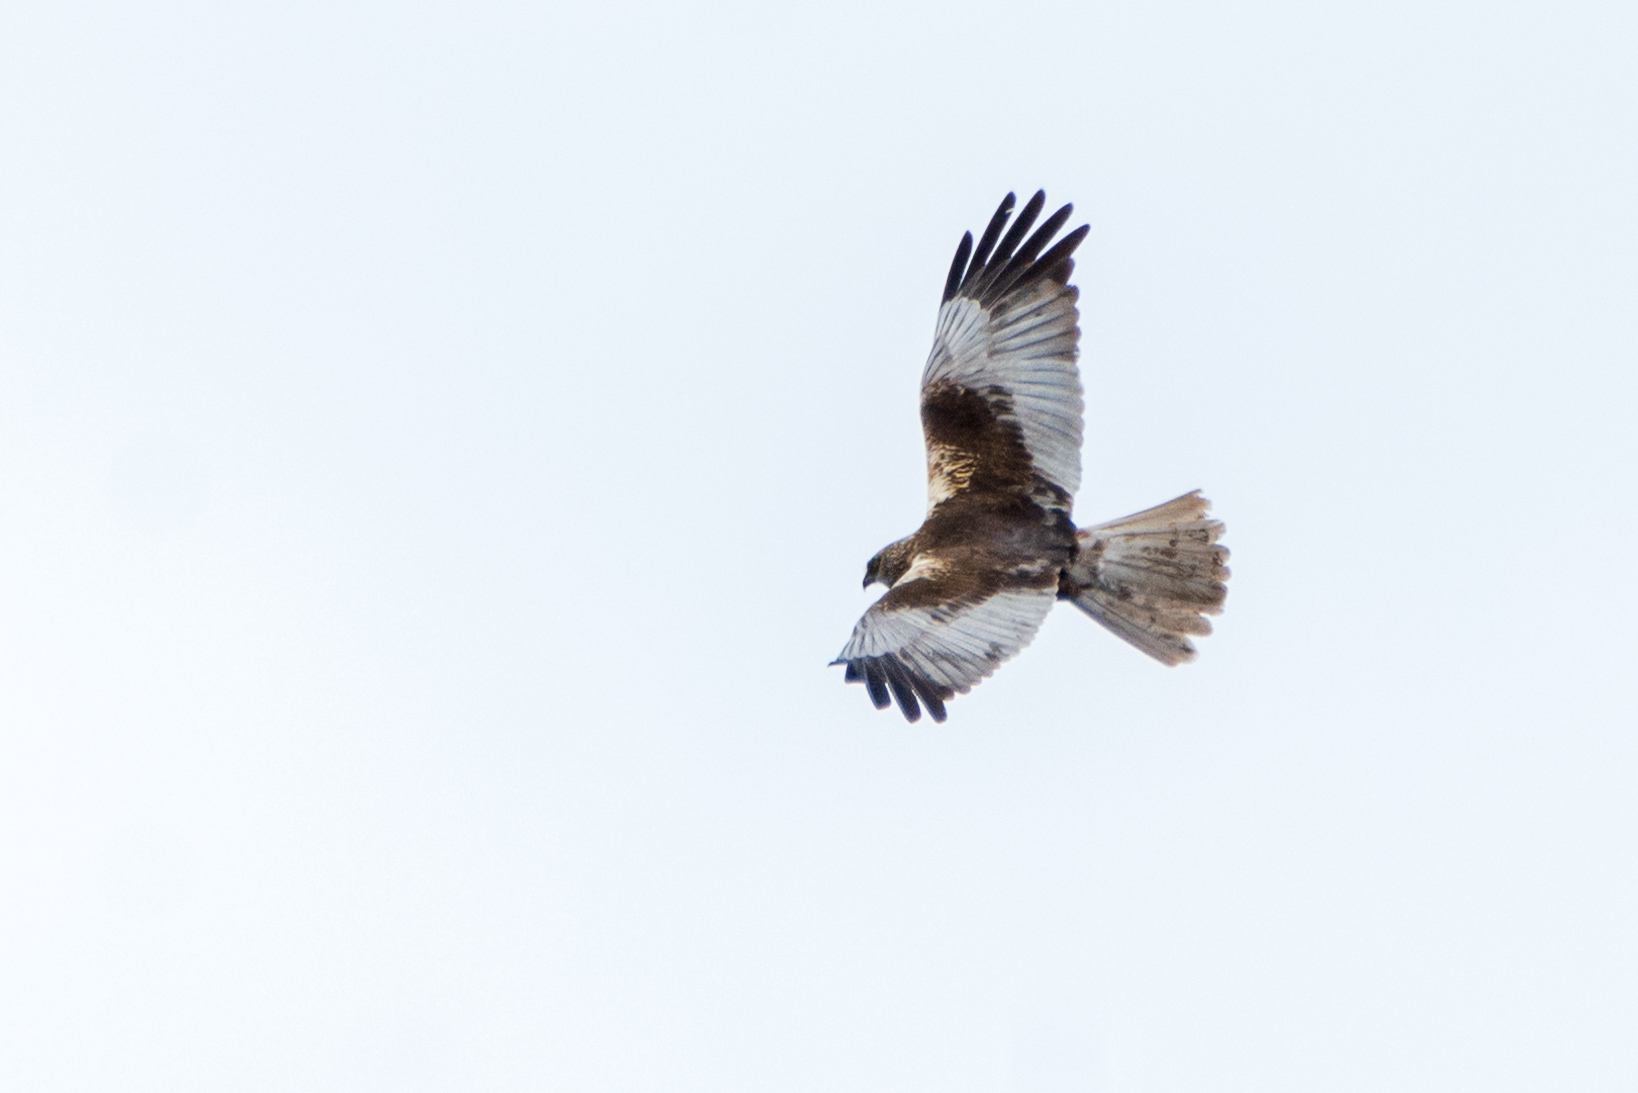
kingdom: Animalia
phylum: Chordata
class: Aves
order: Accipitriformes
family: Accipitridae
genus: Circus
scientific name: Circus aeruginosus
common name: Western marsh harrier
